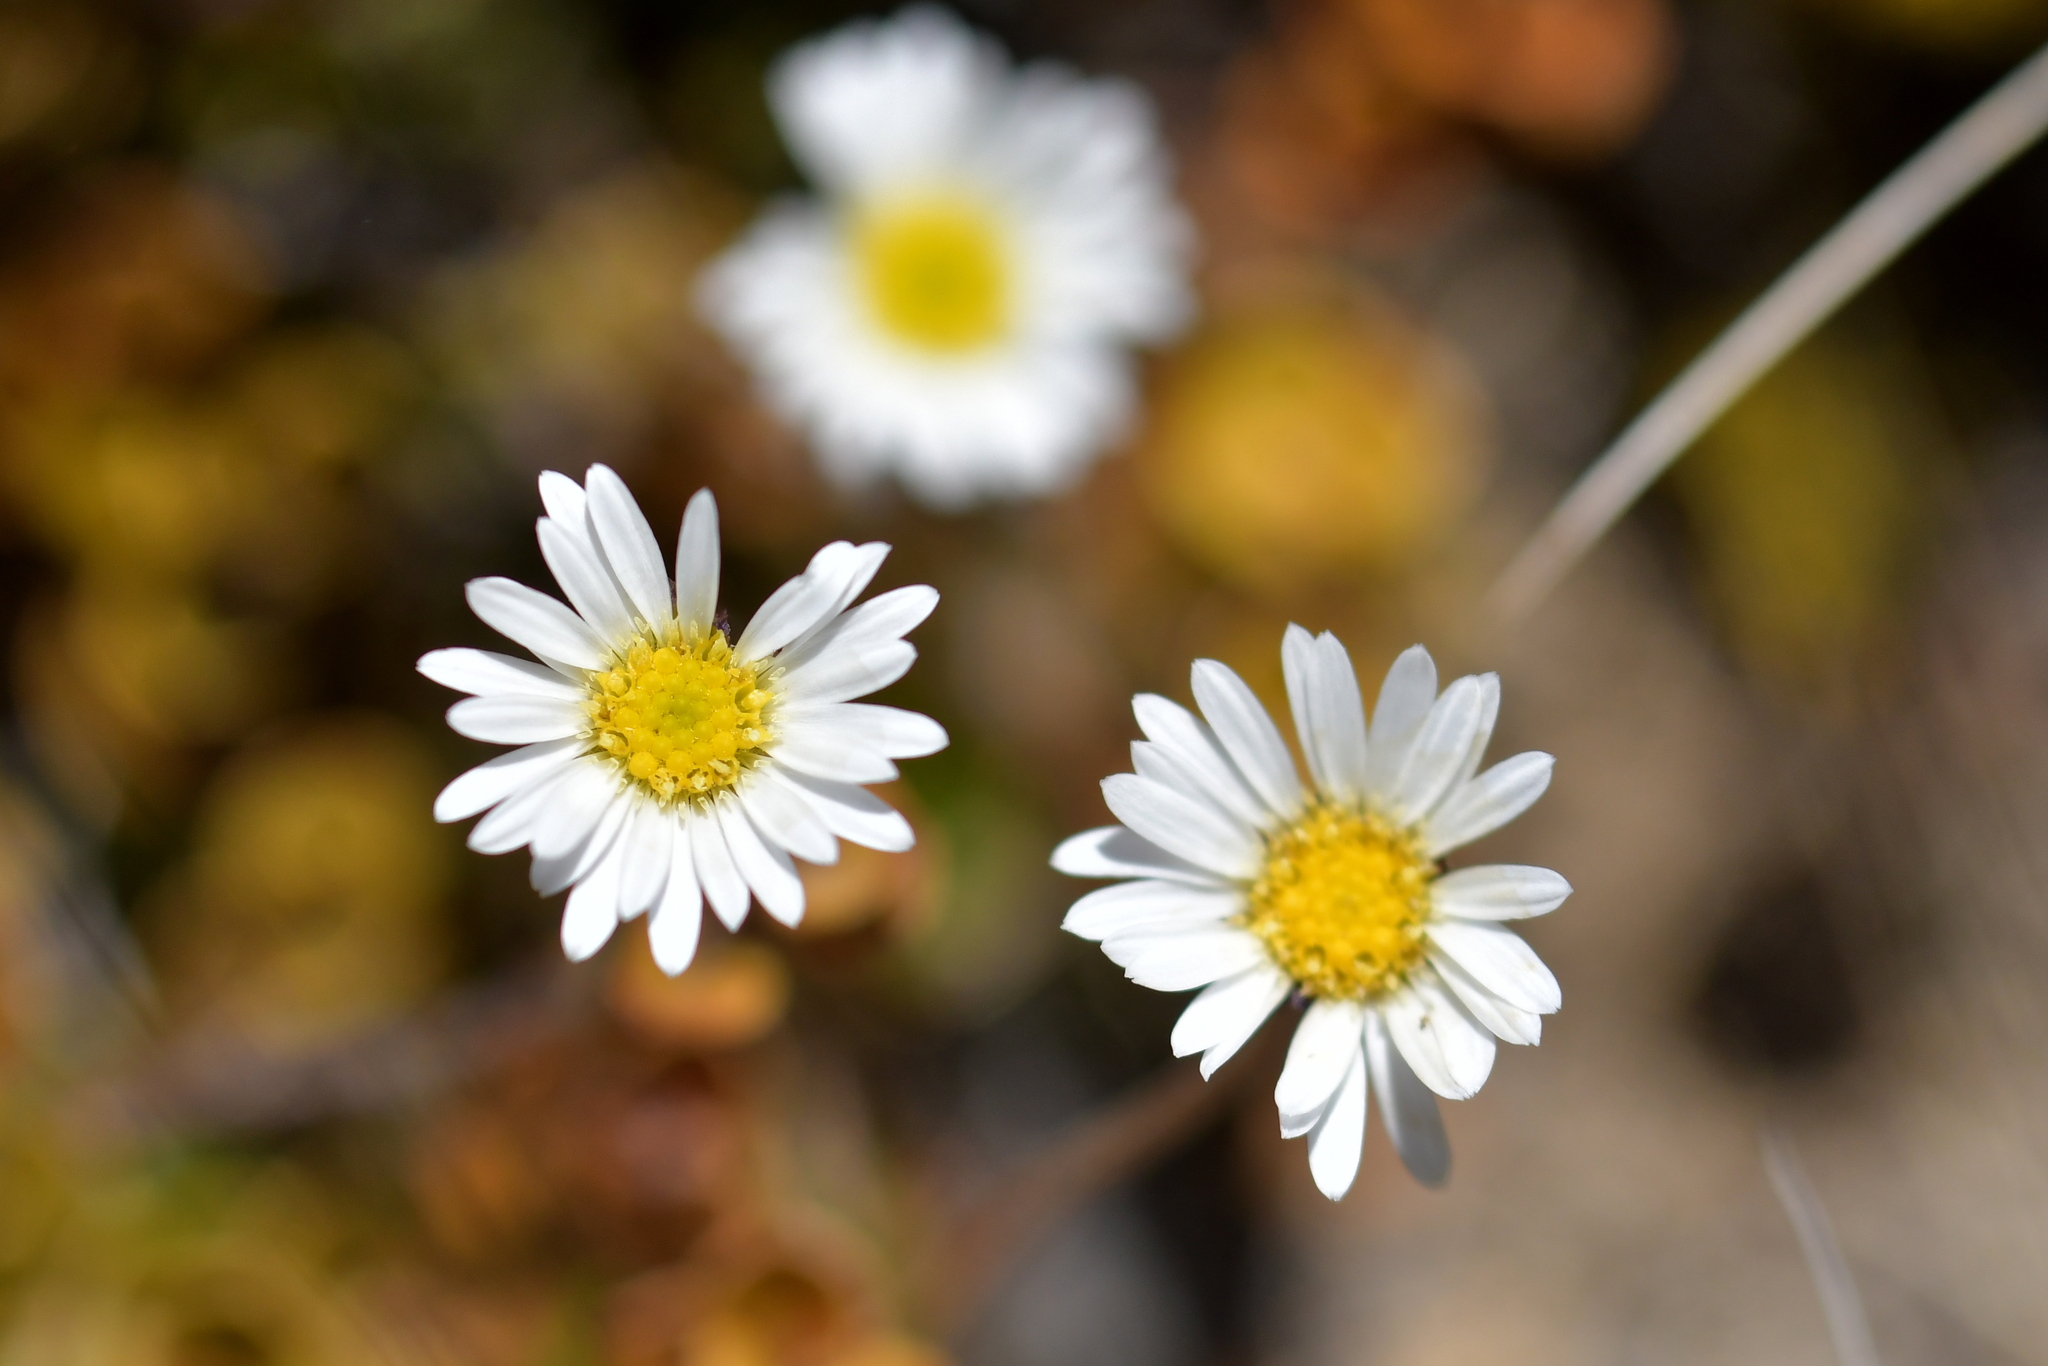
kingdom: Plantae
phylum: Tracheophyta
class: Magnoliopsida
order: Asterales
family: Asteraceae
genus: Brachyscome
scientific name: Brachyscome sinclairii
